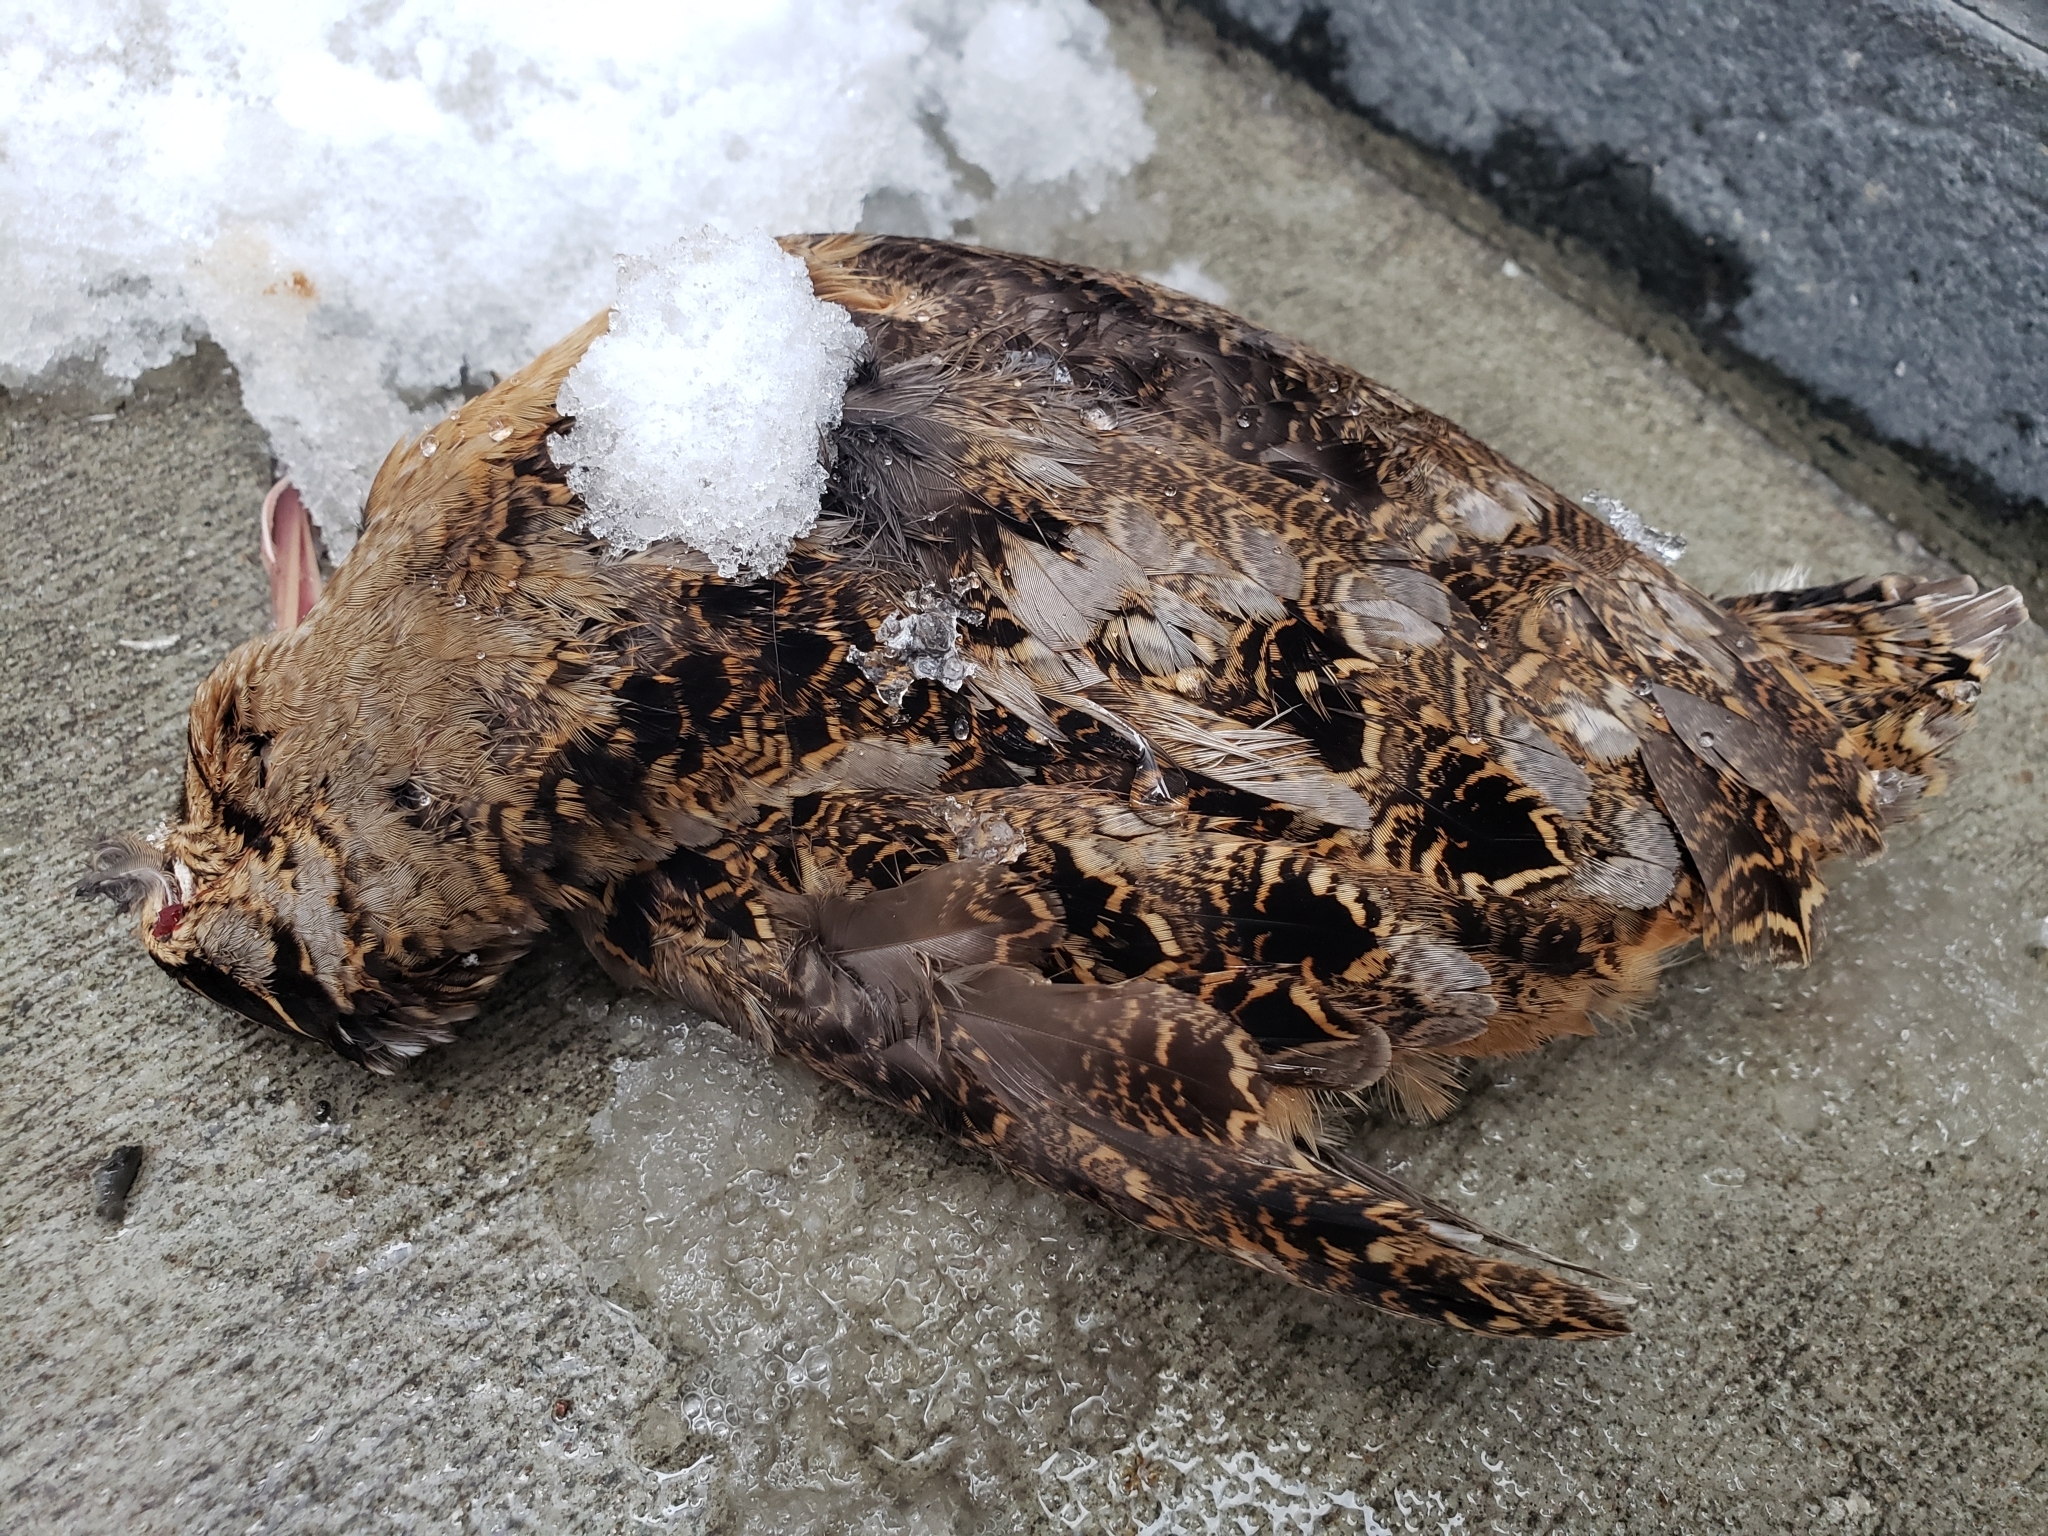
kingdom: Animalia
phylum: Chordata
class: Aves
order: Charadriiformes
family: Scolopacidae
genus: Scolopax
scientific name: Scolopax minor
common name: American woodcock
